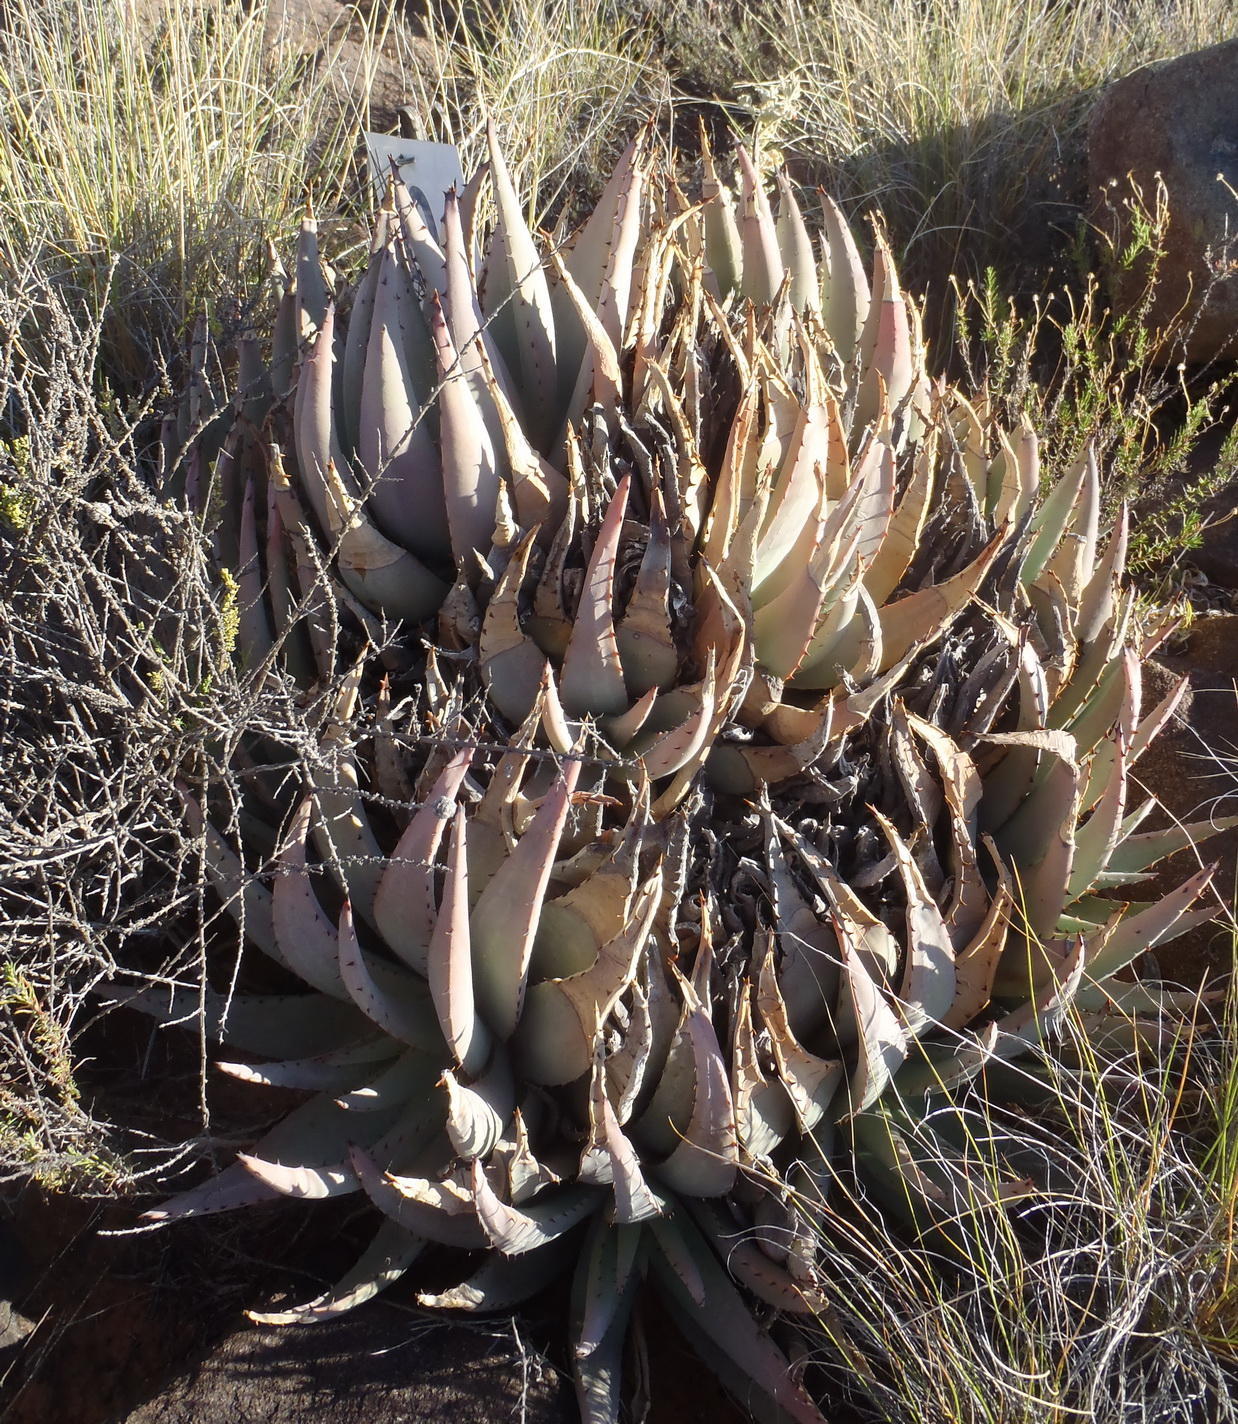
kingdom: Plantae
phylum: Tracheophyta
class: Liliopsida
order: Asparagales
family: Asphodelaceae
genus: Aloe
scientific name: Aloe claviflora
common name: Cannon aloe
